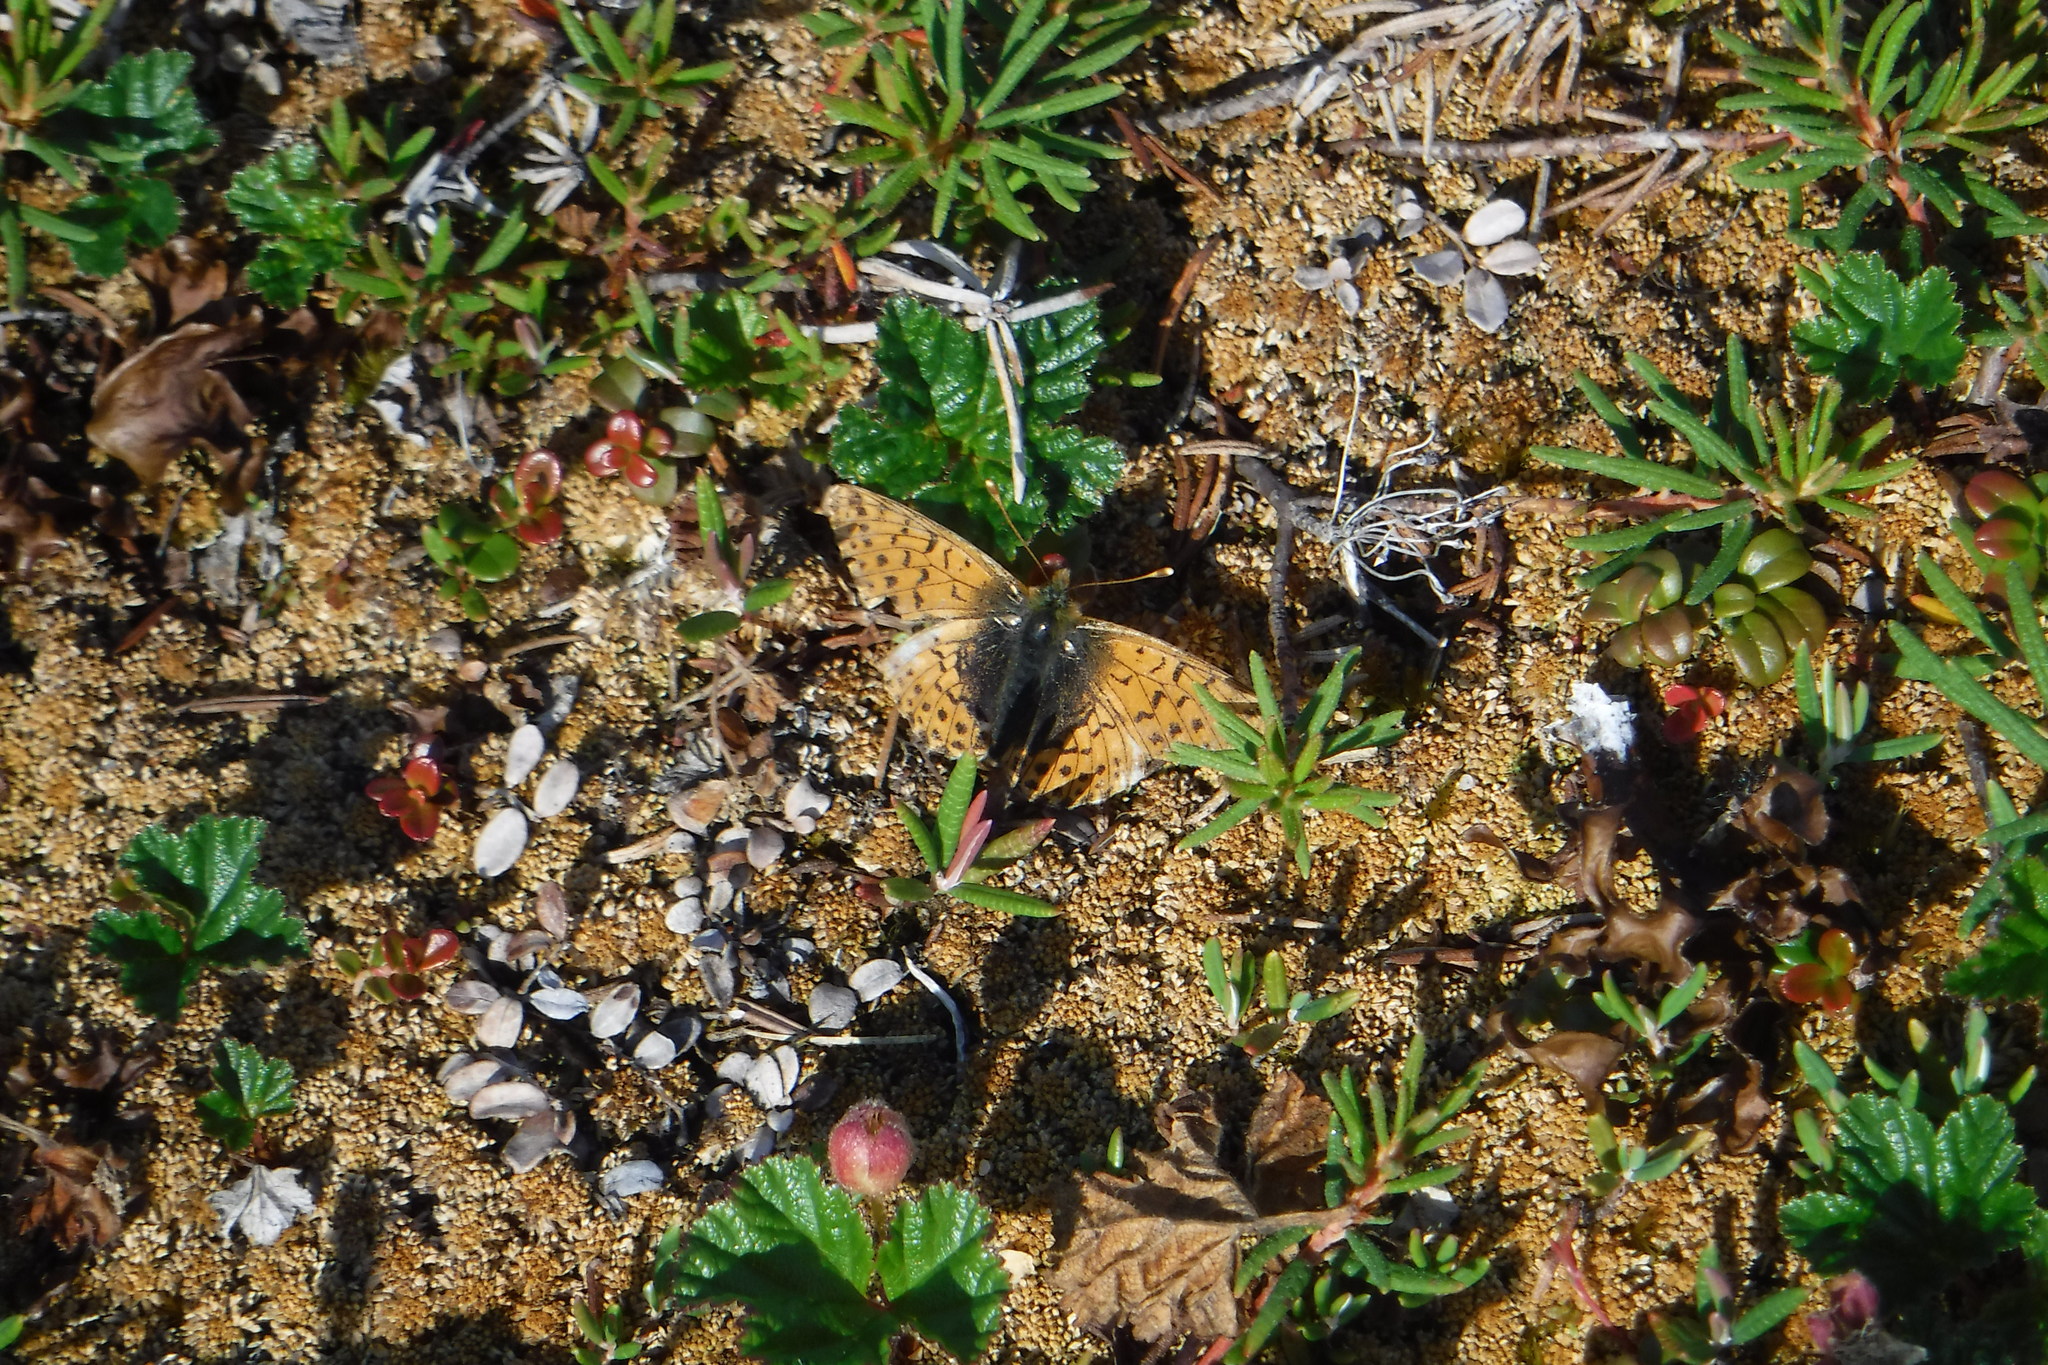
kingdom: Animalia
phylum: Arthropoda
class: Insecta
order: Lepidoptera
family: Nymphalidae
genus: Boloria
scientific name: Boloria alaskensis
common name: Alaskan fritillary
